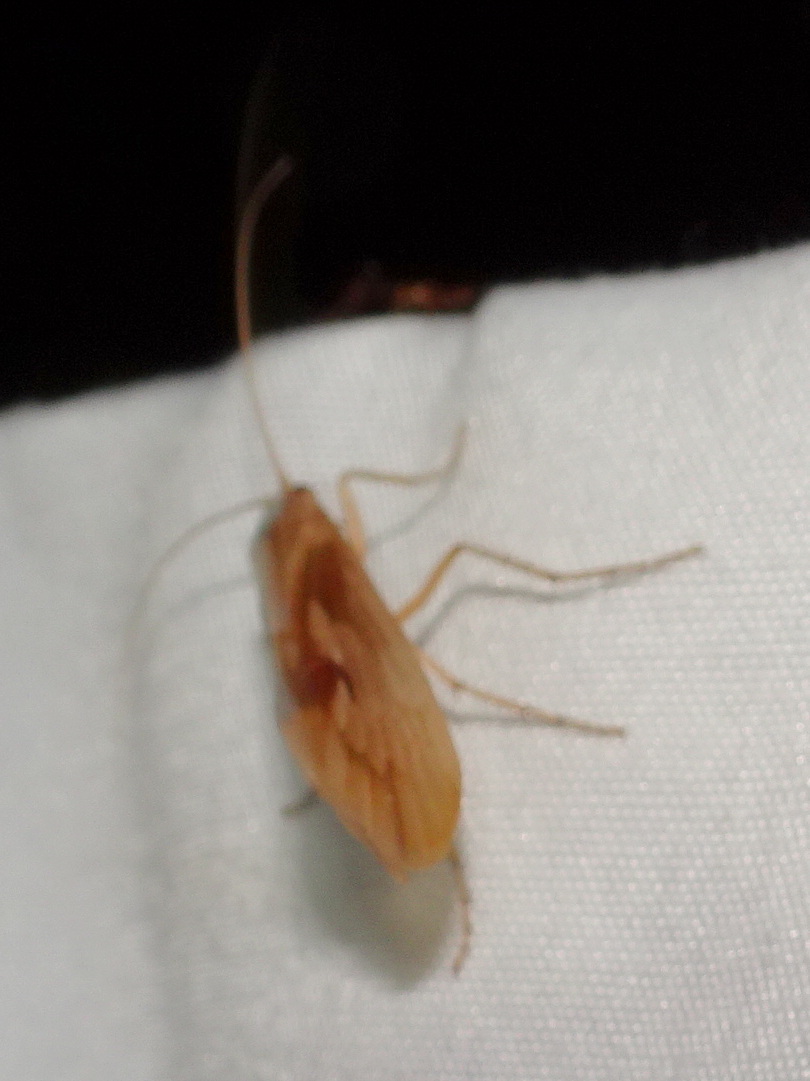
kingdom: Animalia
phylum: Arthropoda
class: Insecta
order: Trichoptera
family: Limnephilidae
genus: Platycentropus
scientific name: Platycentropus radiatus
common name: Chocolate-and-cream sedge
